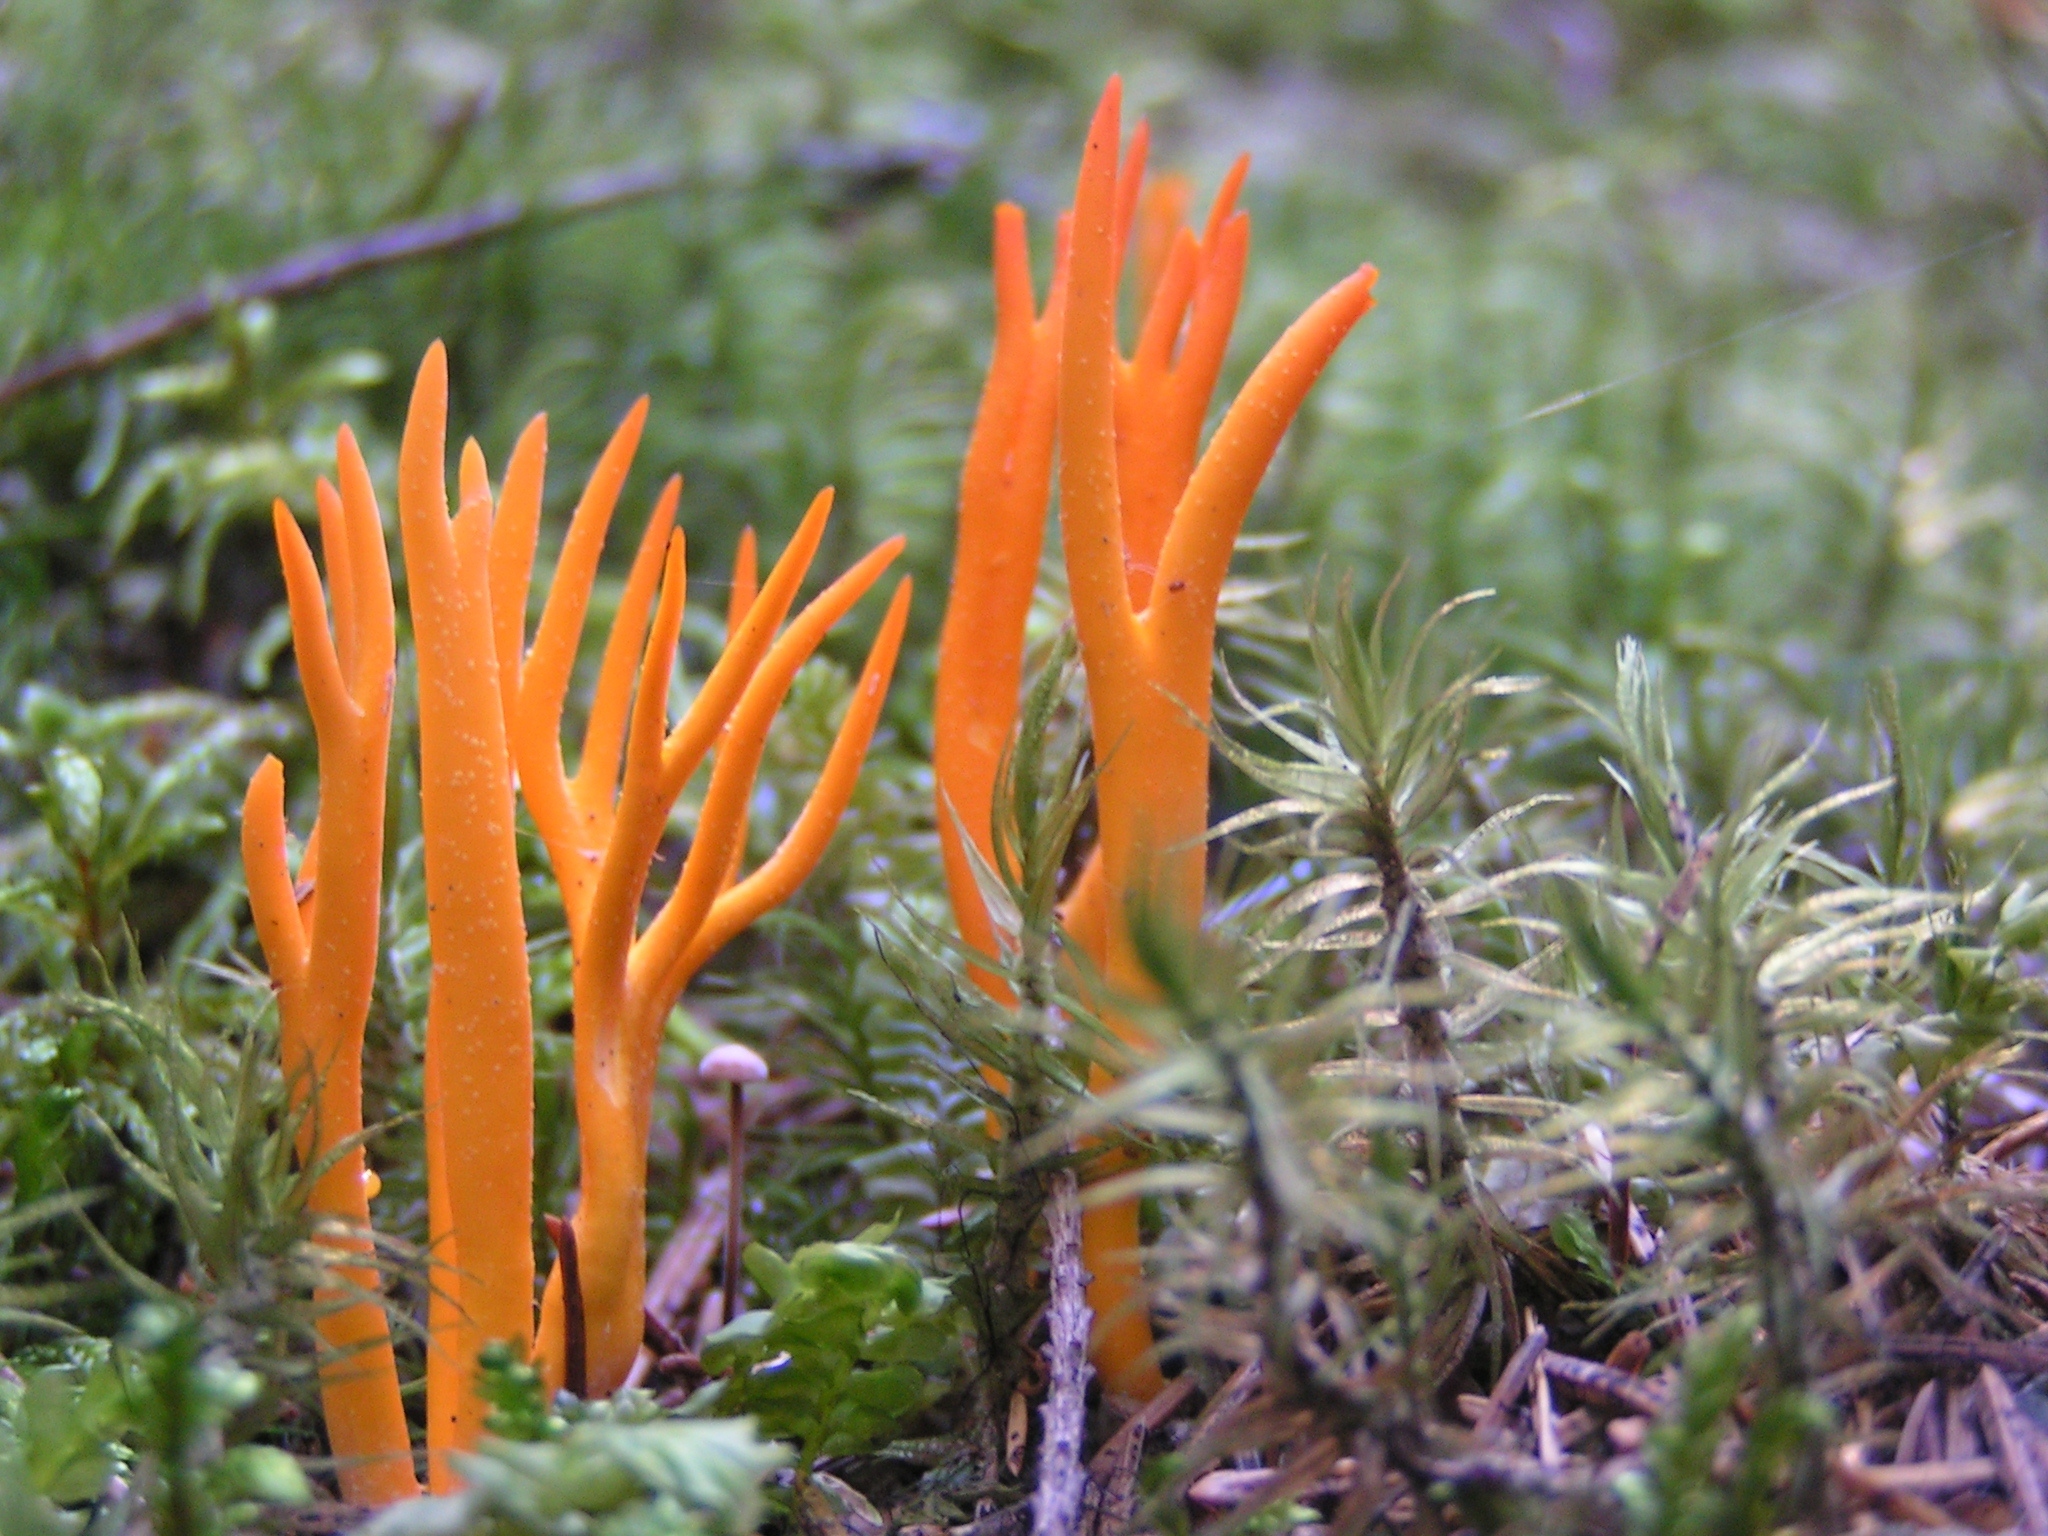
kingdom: Fungi
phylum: Basidiomycota
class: Dacrymycetes
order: Dacrymycetales
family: Dacrymycetaceae
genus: Calocera
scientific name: Calocera viscosa
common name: Yellow stagshorn
